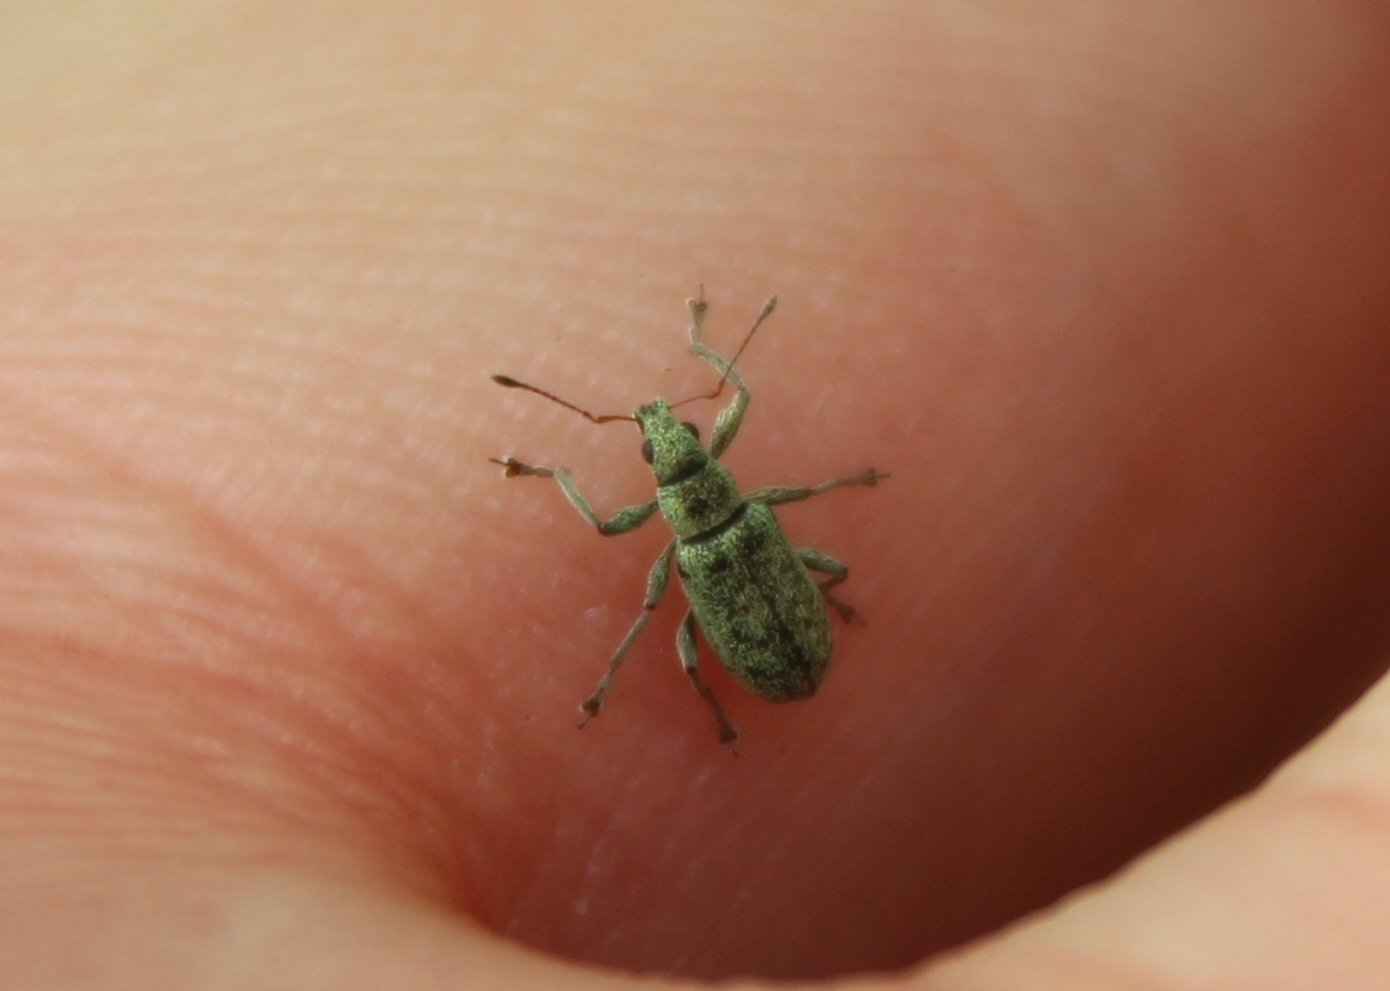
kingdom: Animalia
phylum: Arthropoda
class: Insecta
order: Coleoptera
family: Curculionidae
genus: Polydrusus
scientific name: Polydrusus cervinus
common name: Weevil
